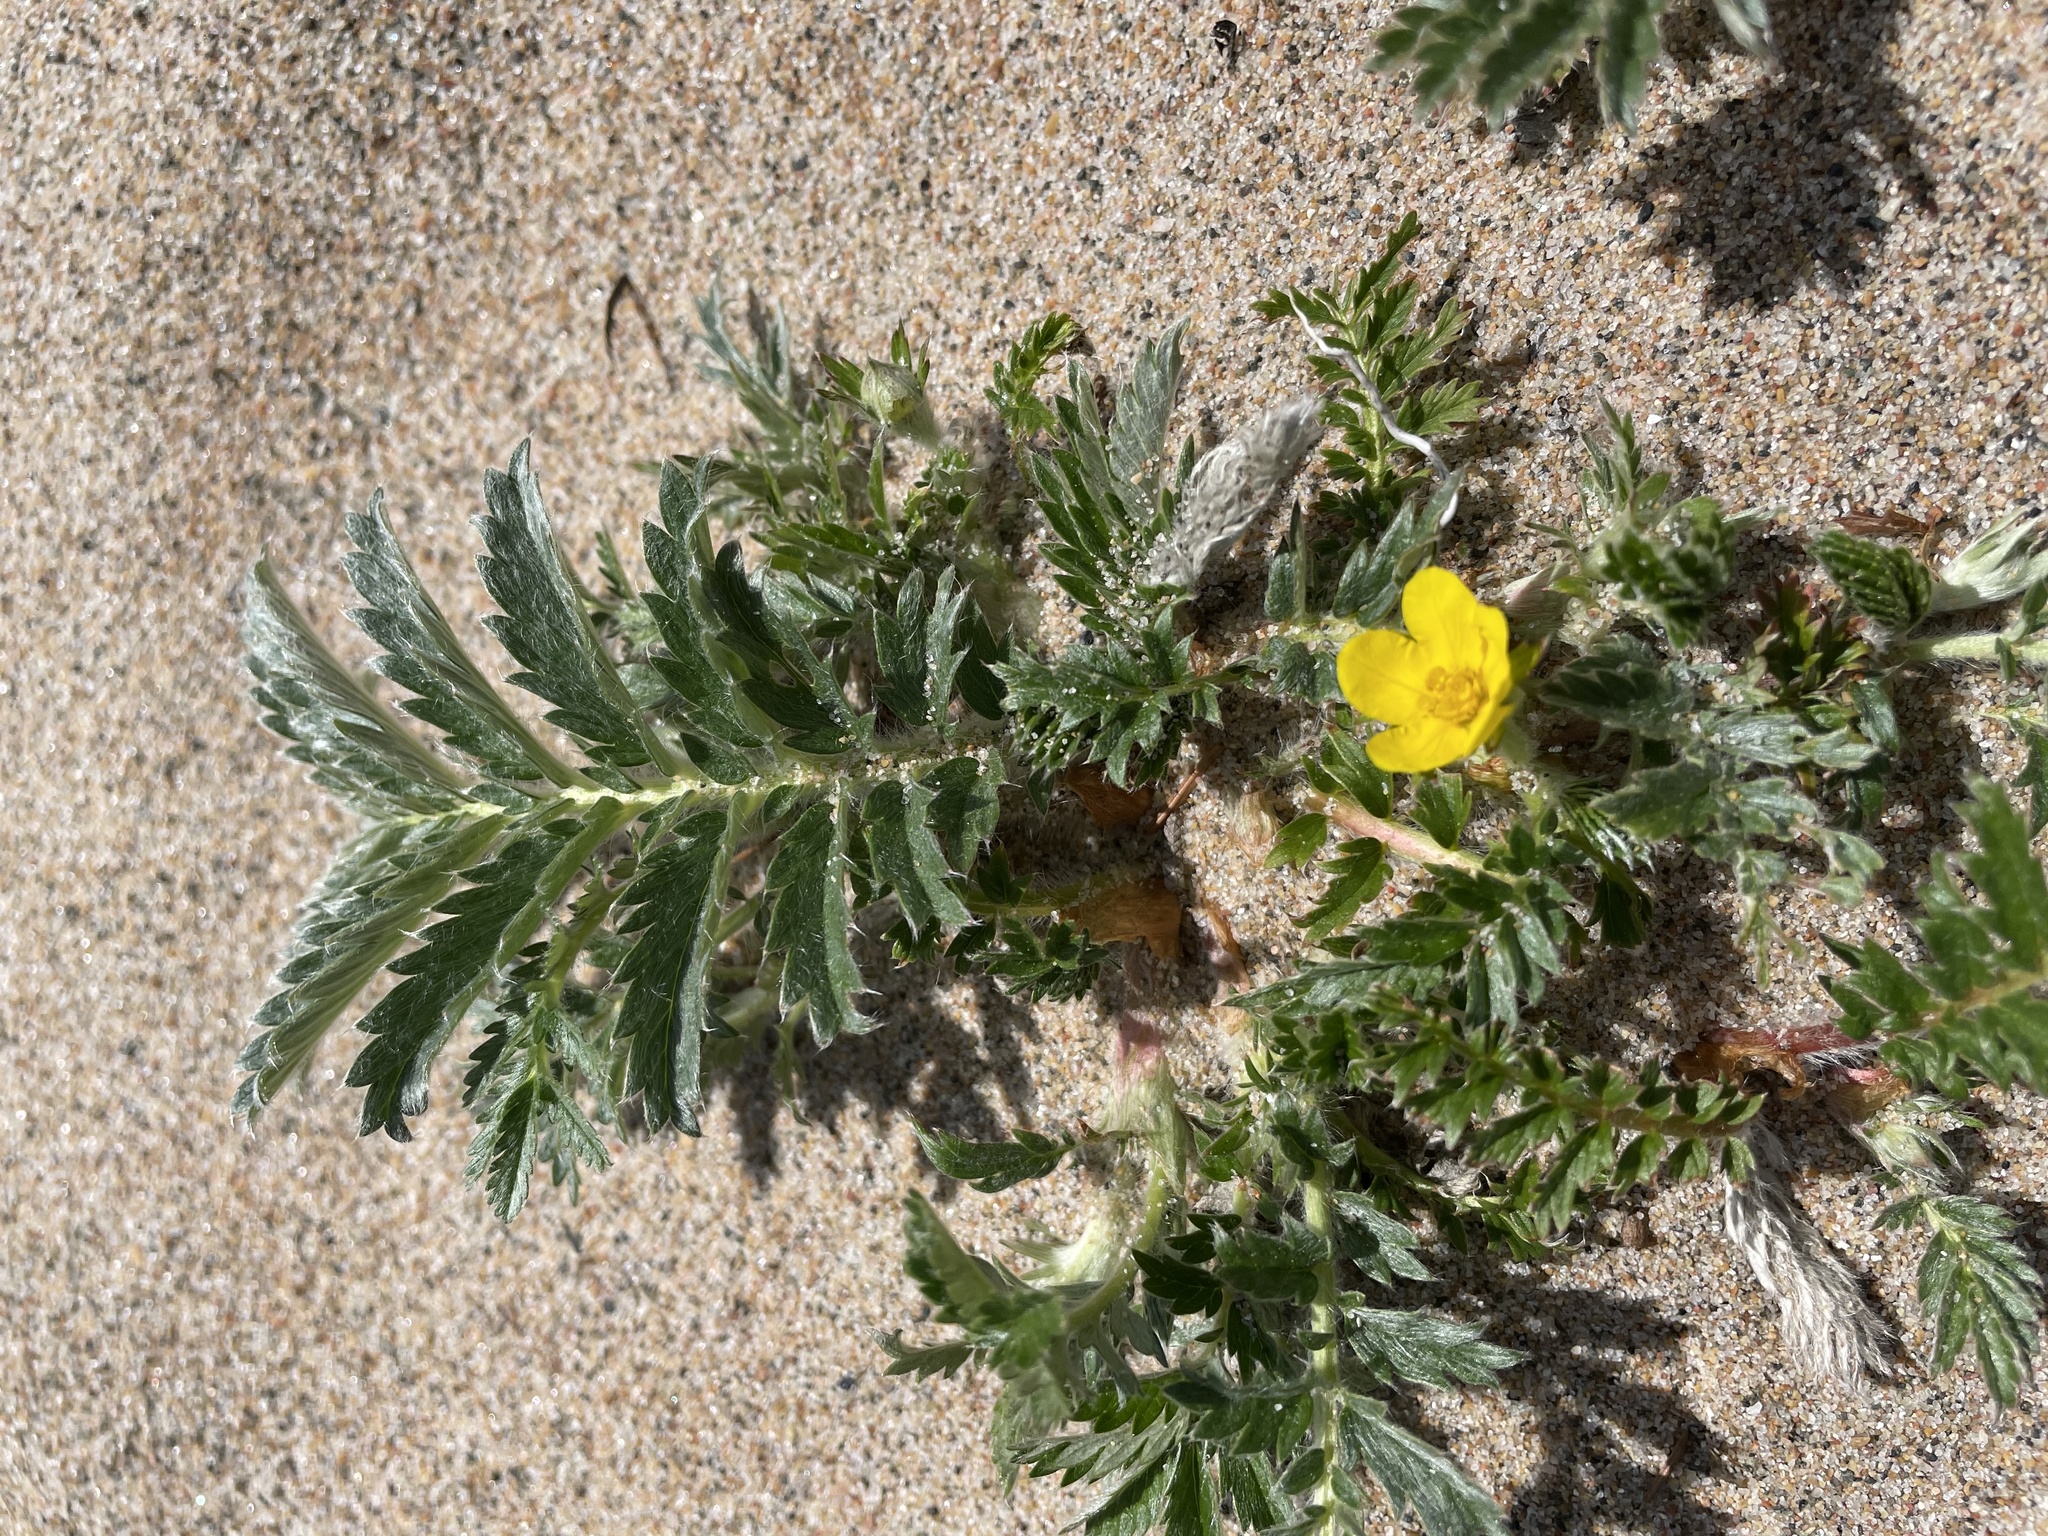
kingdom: Plantae
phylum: Tracheophyta
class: Magnoliopsida
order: Rosales
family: Rosaceae
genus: Argentina
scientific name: Argentina anserina
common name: Common silverweed
